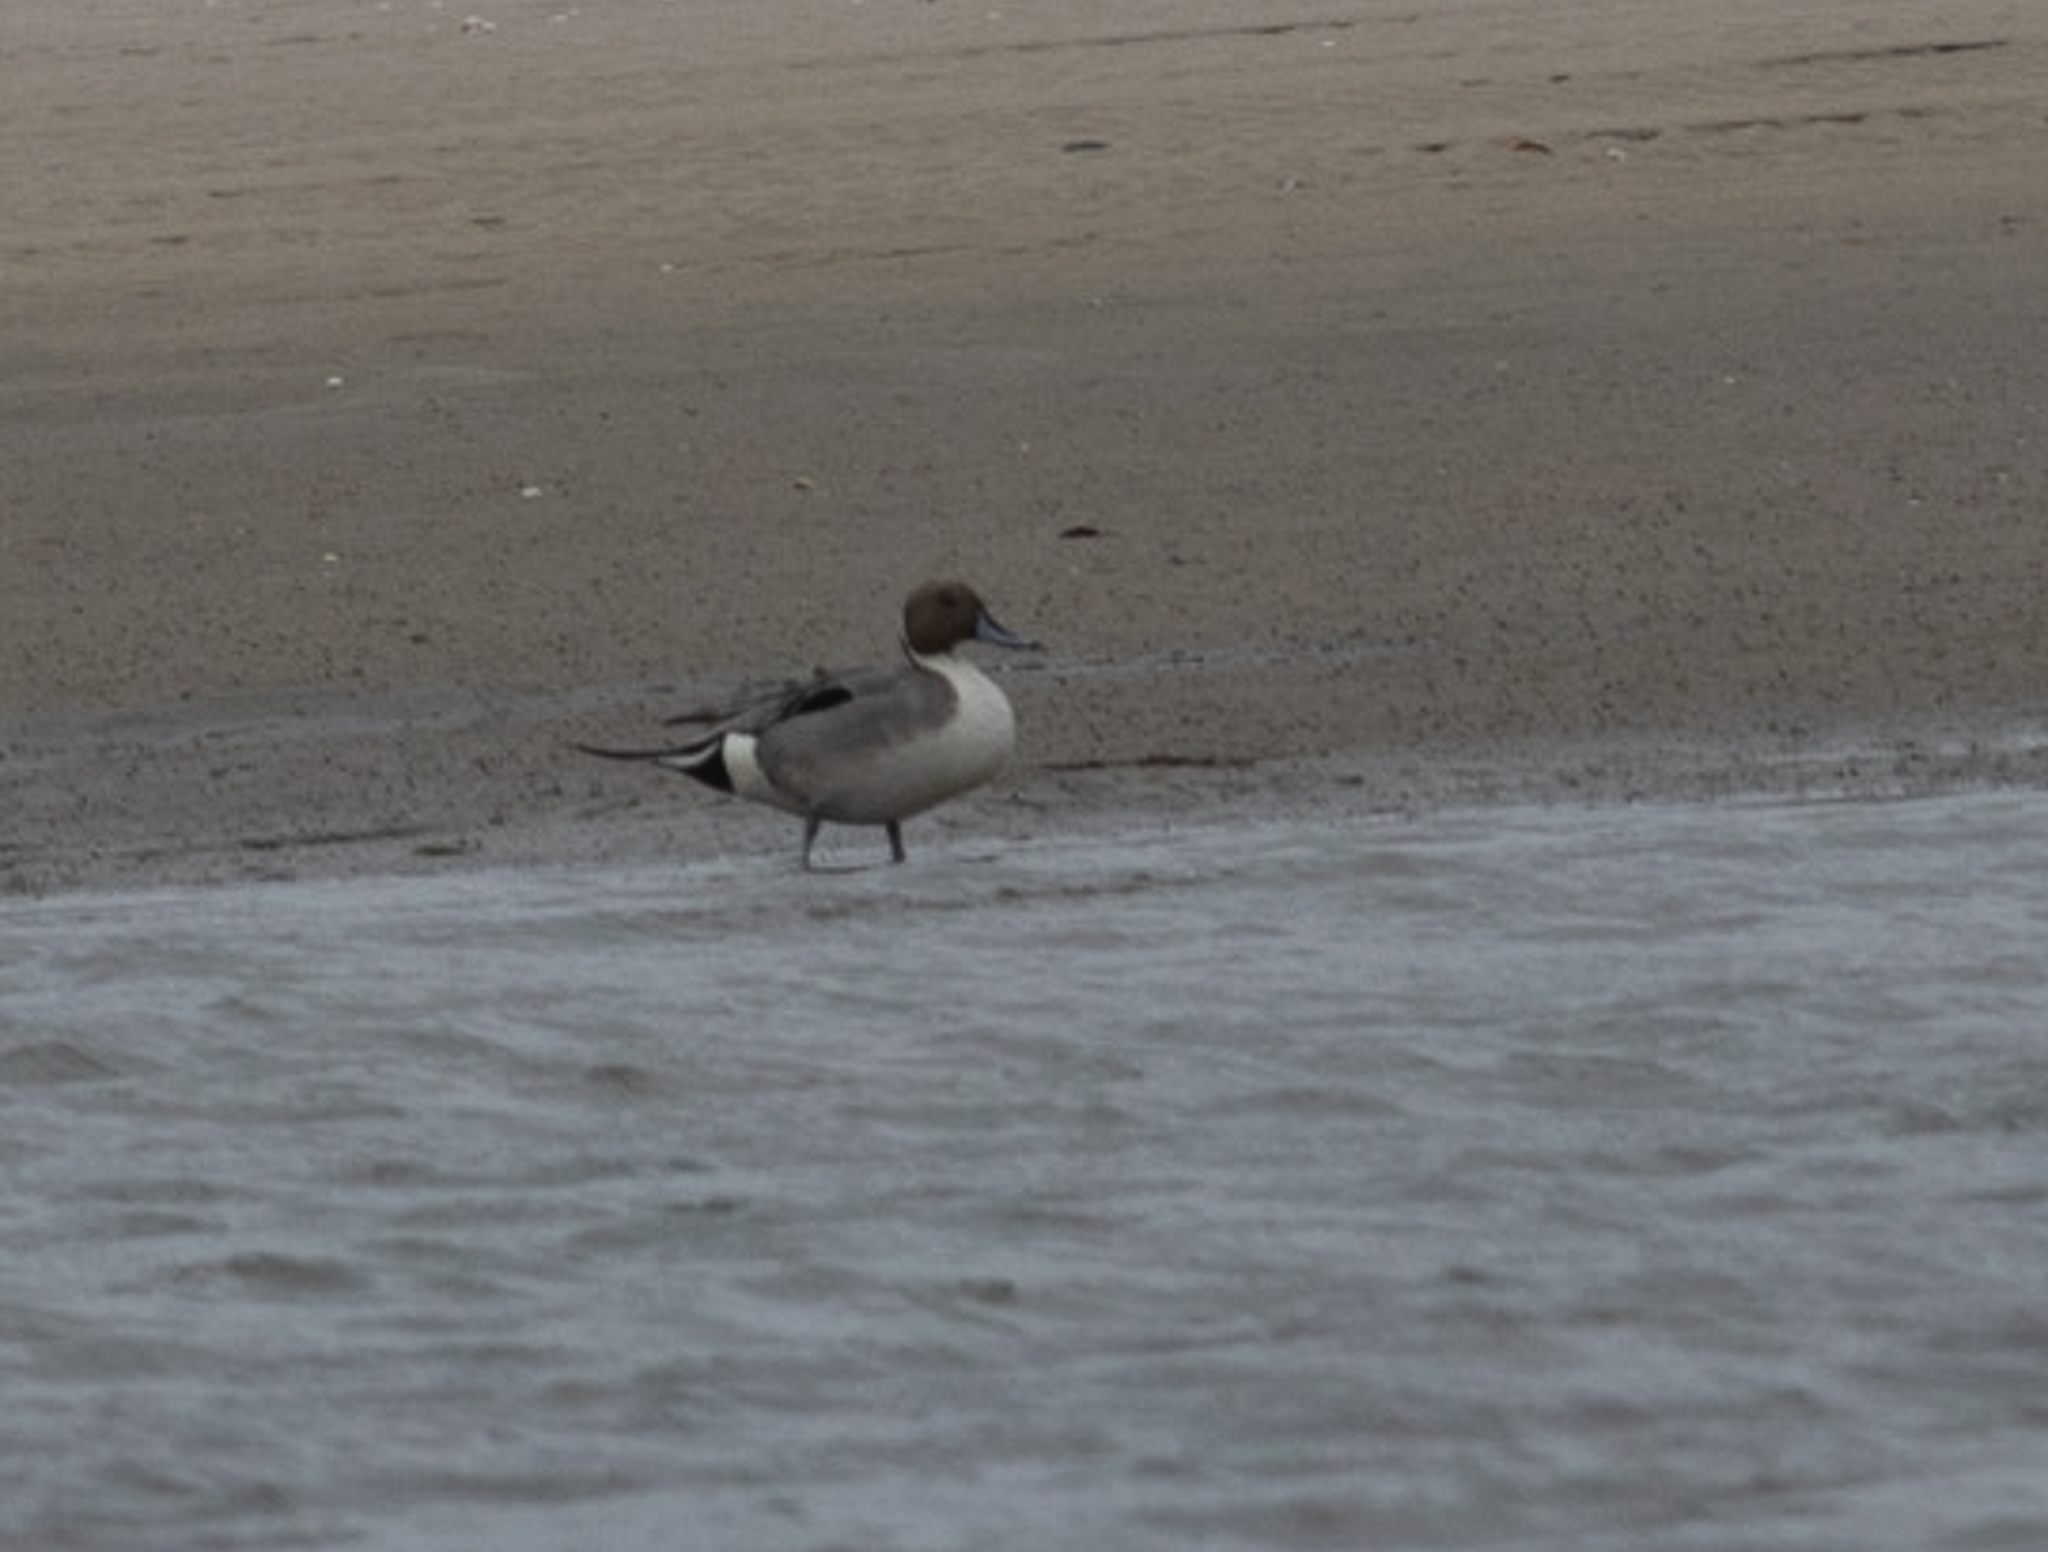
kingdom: Animalia
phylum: Chordata
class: Aves
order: Anseriformes
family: Anatidae
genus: Anas
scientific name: Anas acuta
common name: Northern pintail
